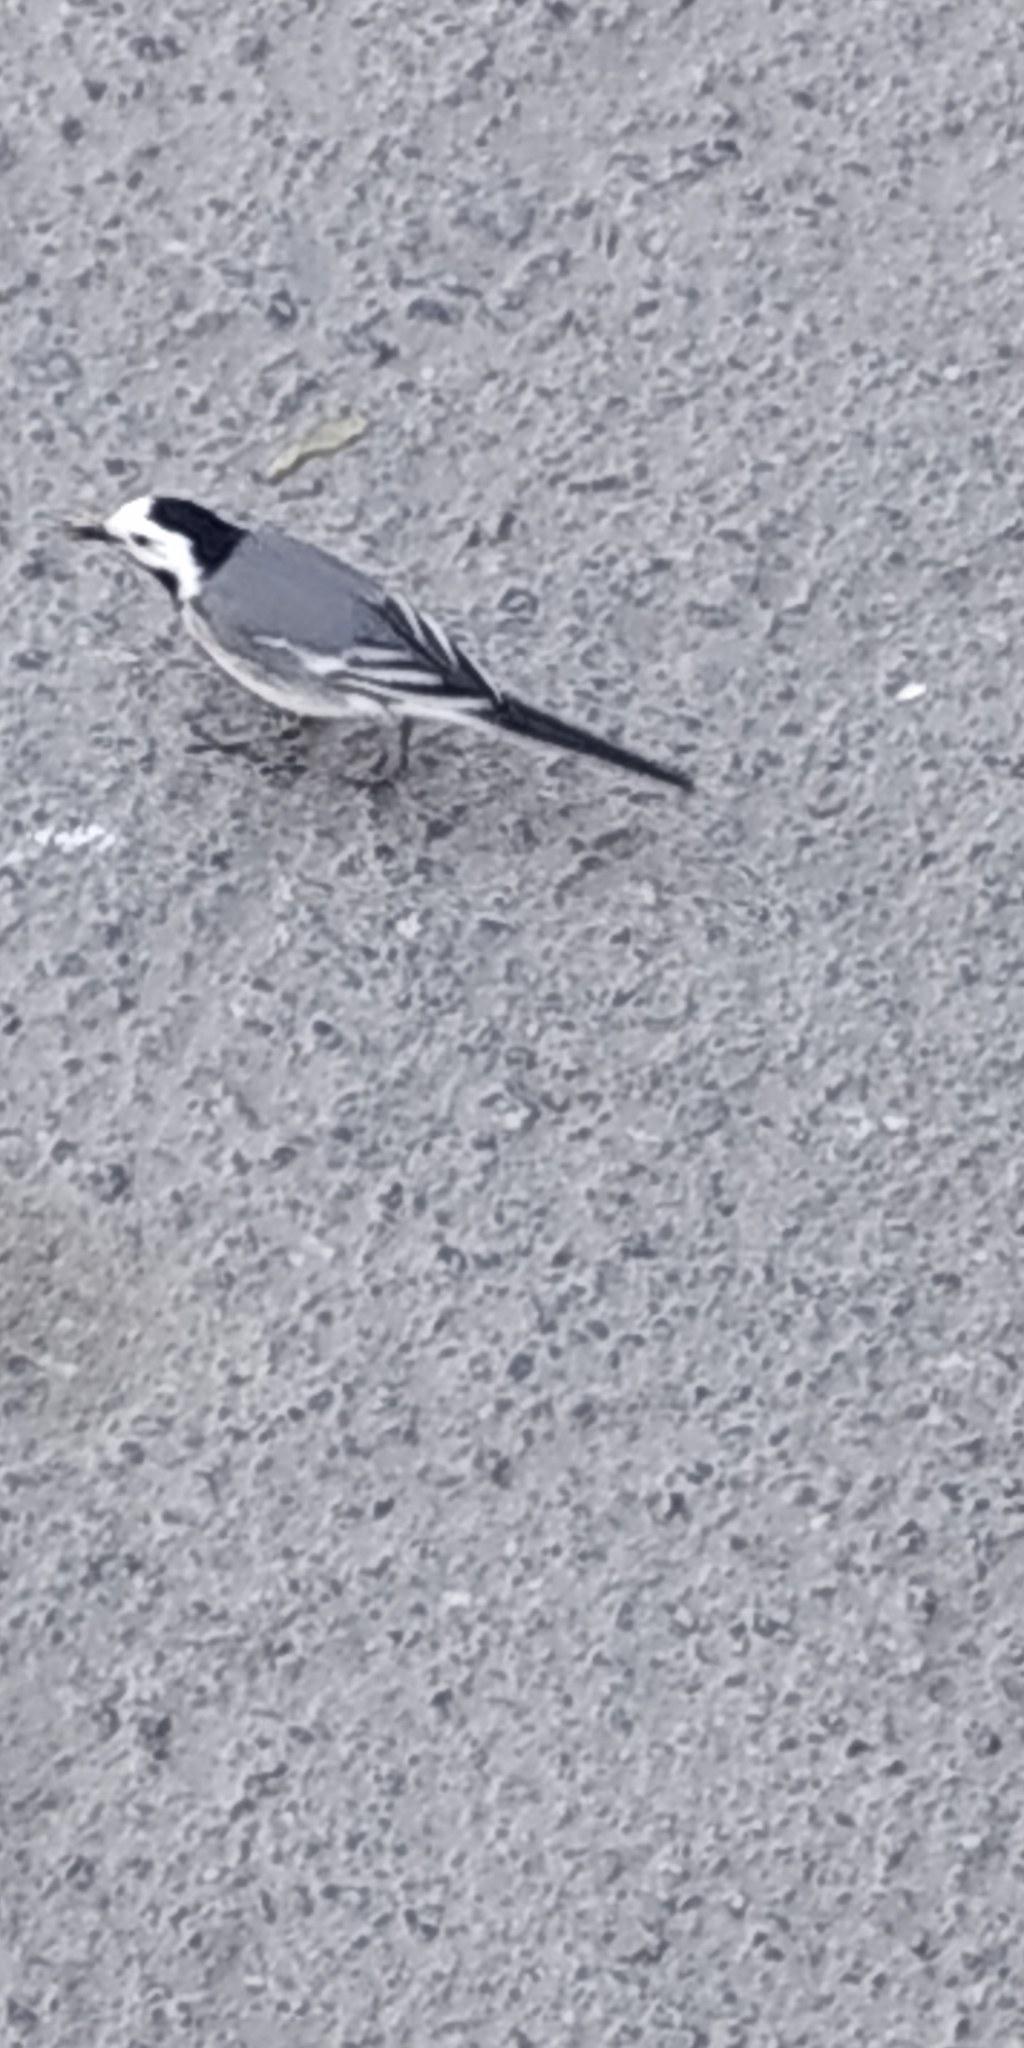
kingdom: Animalia
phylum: Chordata
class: Aves
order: Passeriformes
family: Motacillidae
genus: Motacilla
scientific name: Motacilla alba
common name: White wagtail
